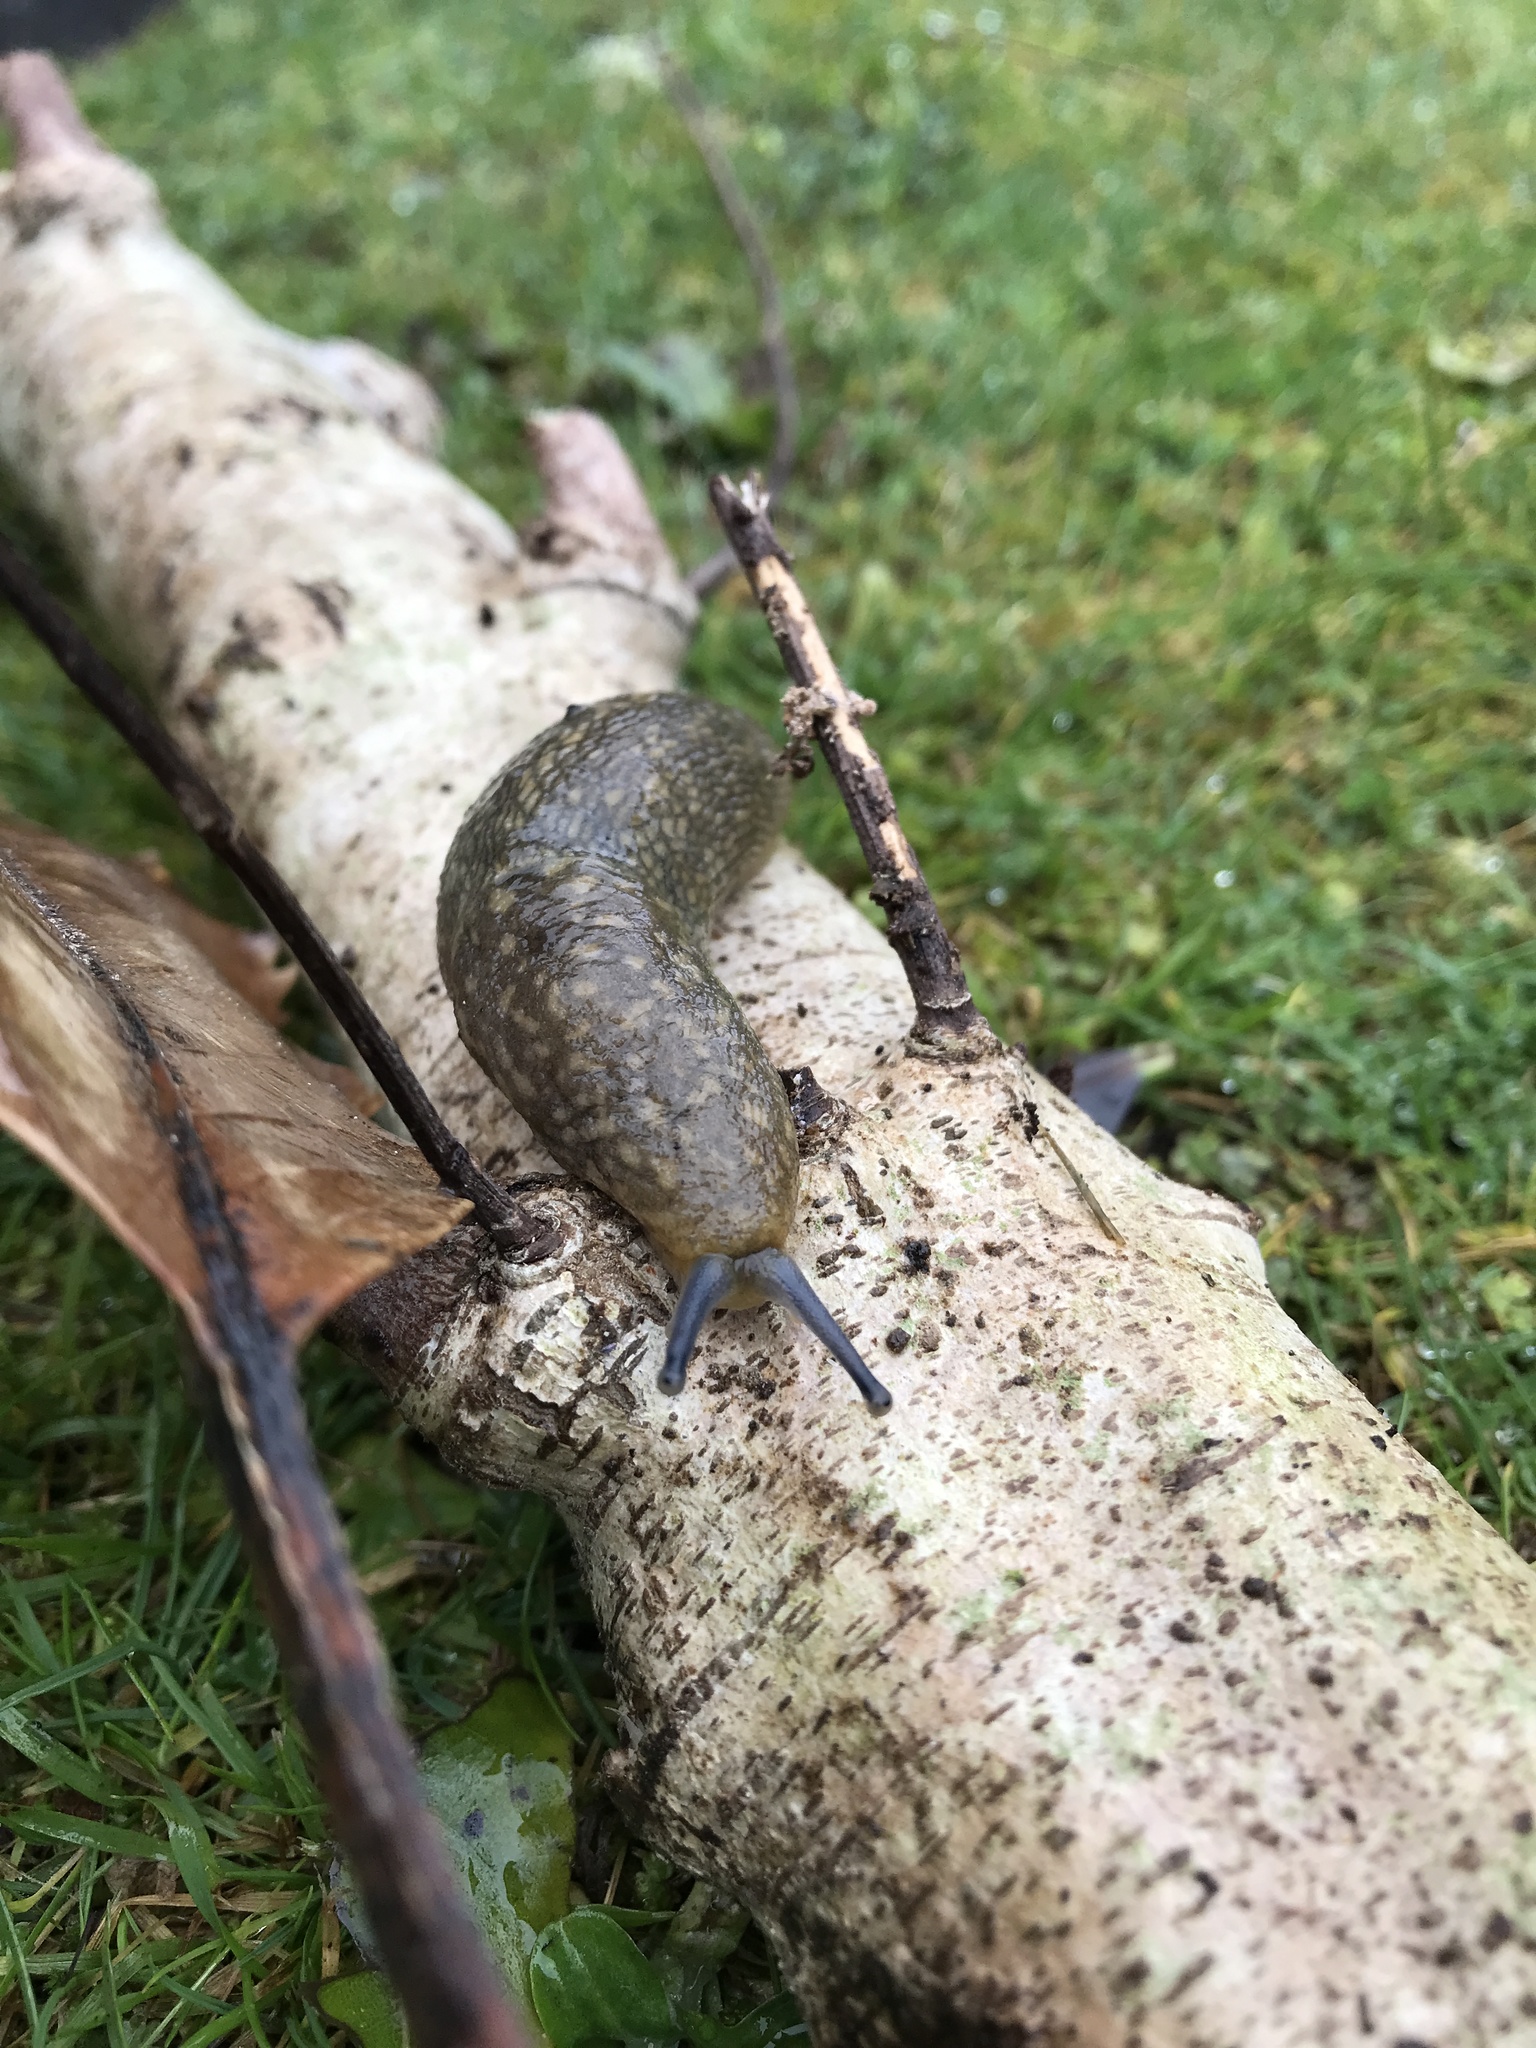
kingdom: Animalia
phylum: Mollusca
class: Gastropoda
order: Stylommatophora
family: Limacidae
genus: Limacus
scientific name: Limacus flavus
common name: Yellow gardenslug
